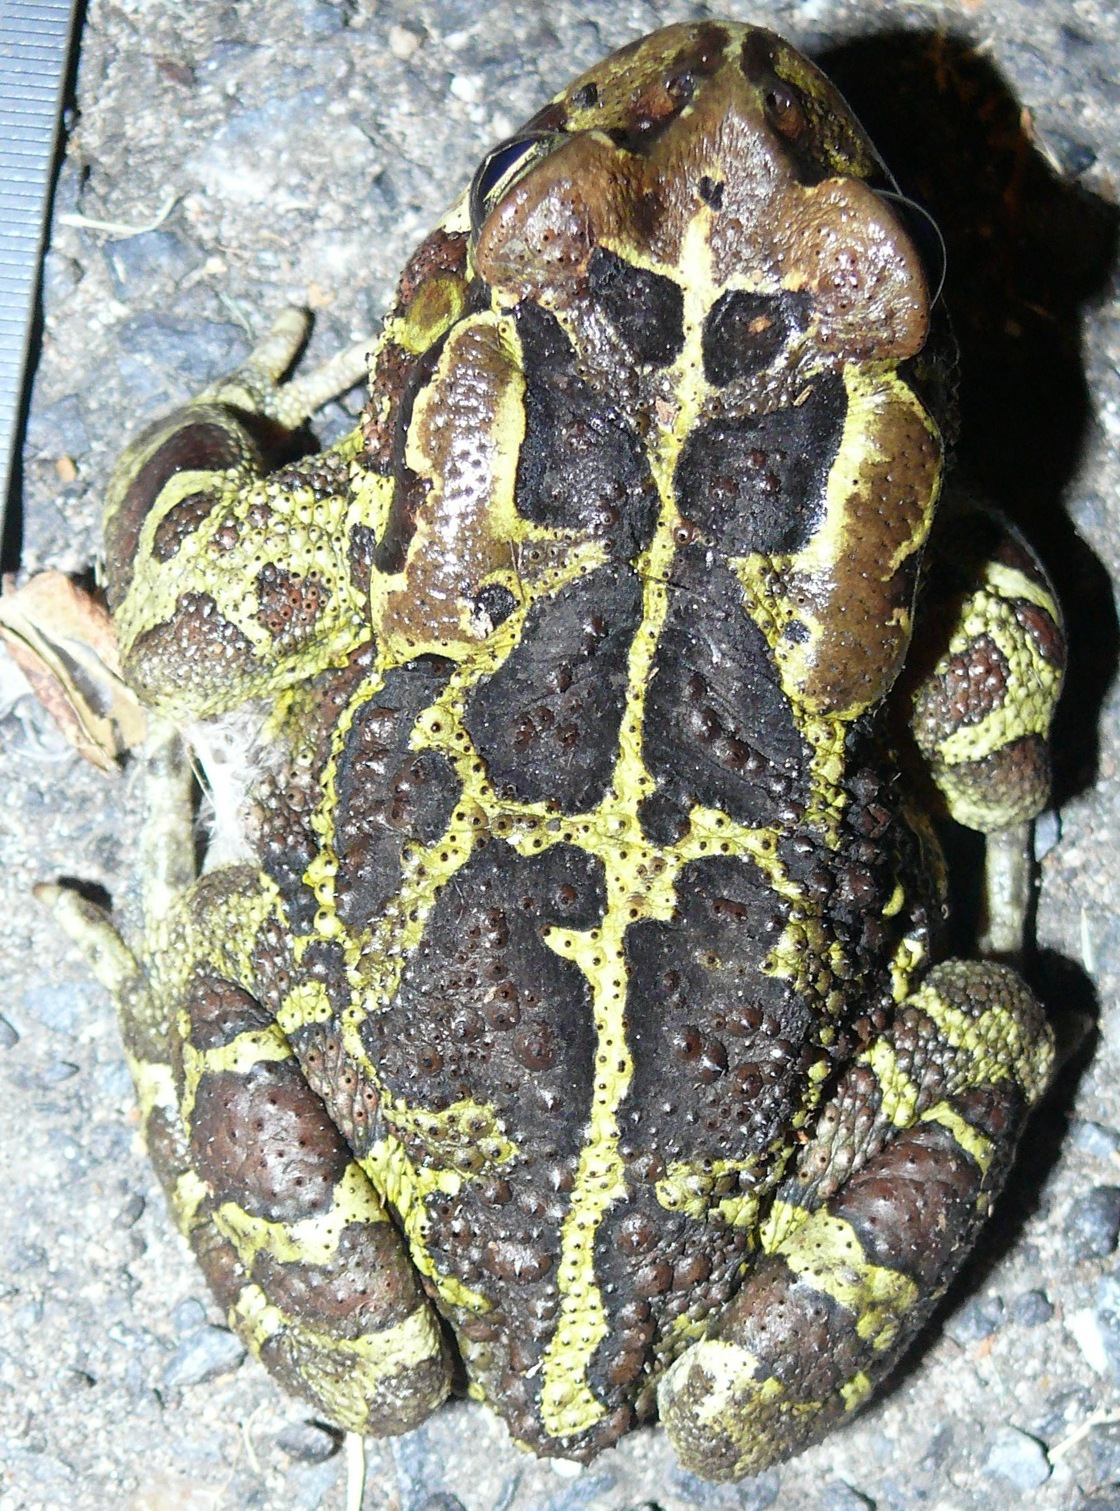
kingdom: Animalia
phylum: Chordata
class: Amphibia
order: Anura
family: Bufonidae
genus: Sclerophrys
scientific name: Sclerophrys pantherina
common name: Panther toad
